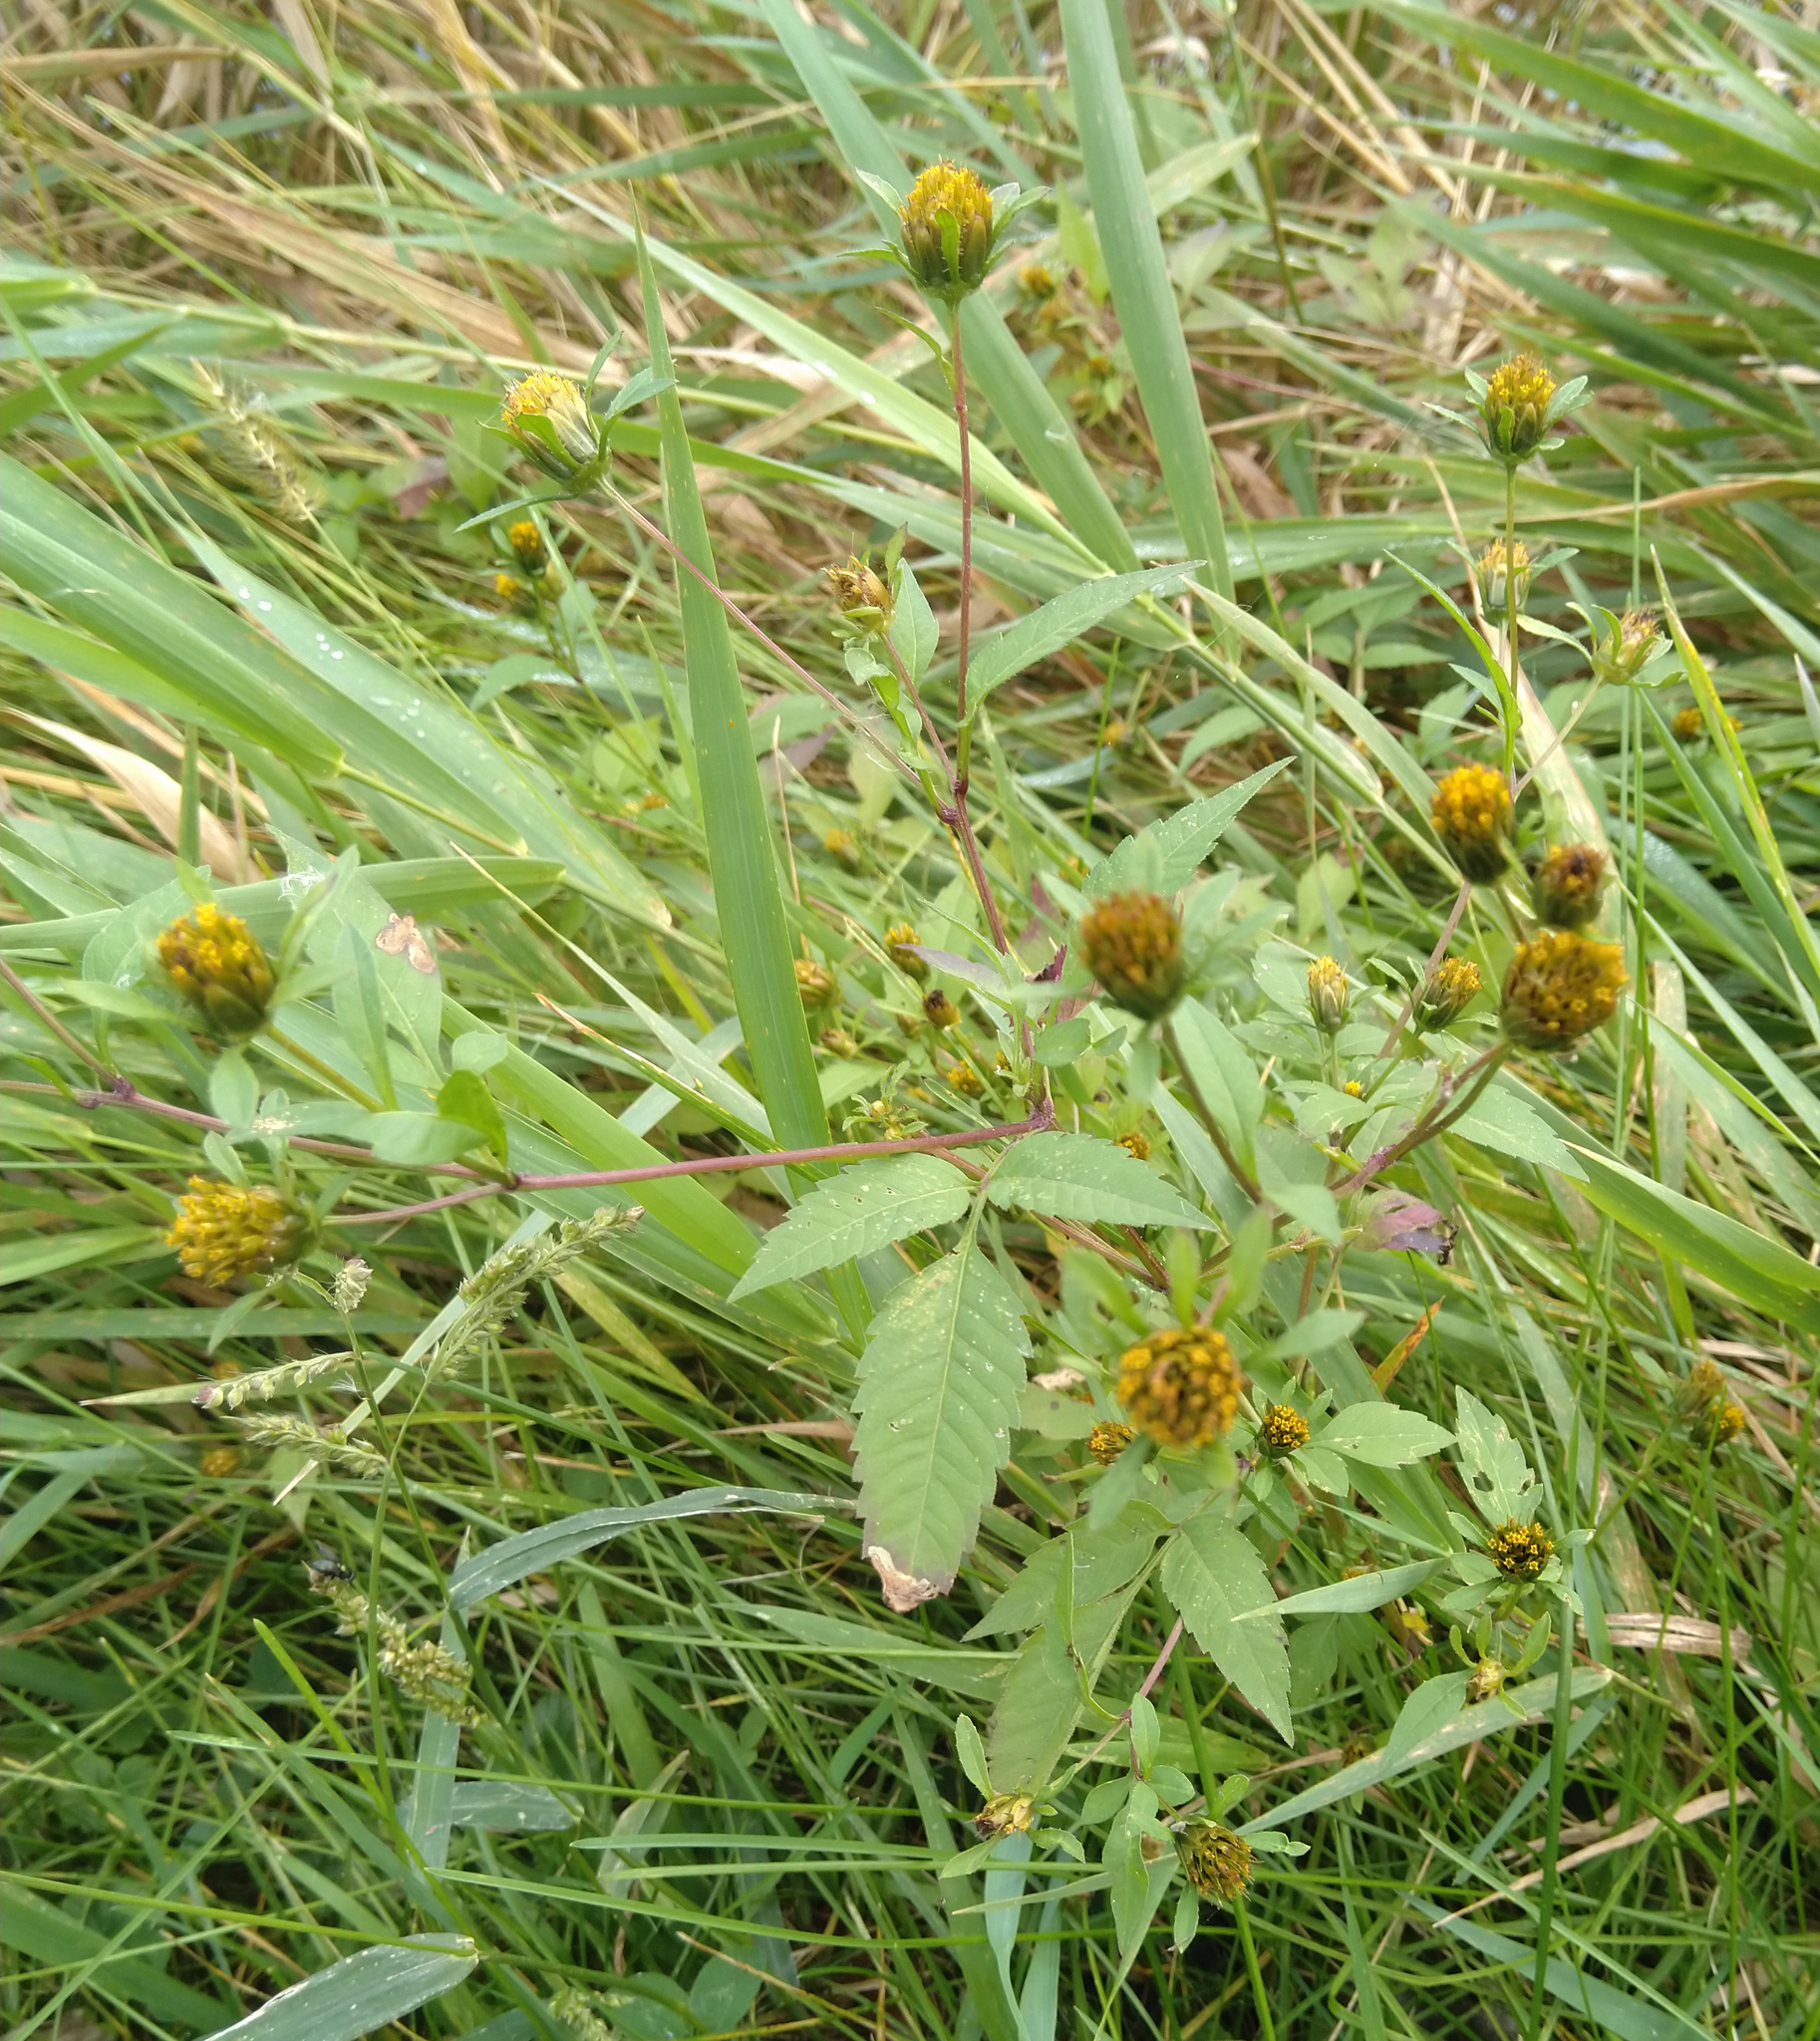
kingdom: Plantae
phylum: Tracheophyta
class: Magnoliopsida
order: Asterales
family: Asteraceae
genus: Bidens
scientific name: Bidens frondosa
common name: Beggarticks
